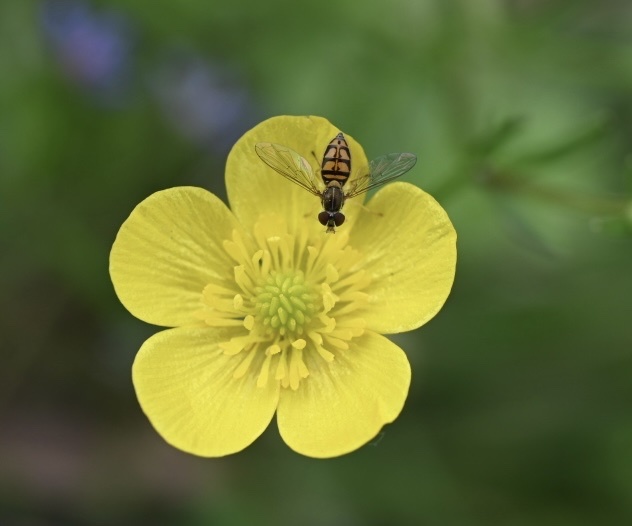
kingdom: Animalia
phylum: Arthropoda
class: Insecta
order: Diptera
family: Syrphidae
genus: Toxomerus
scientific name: Toxomerus marginatus
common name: Syrphid fly
